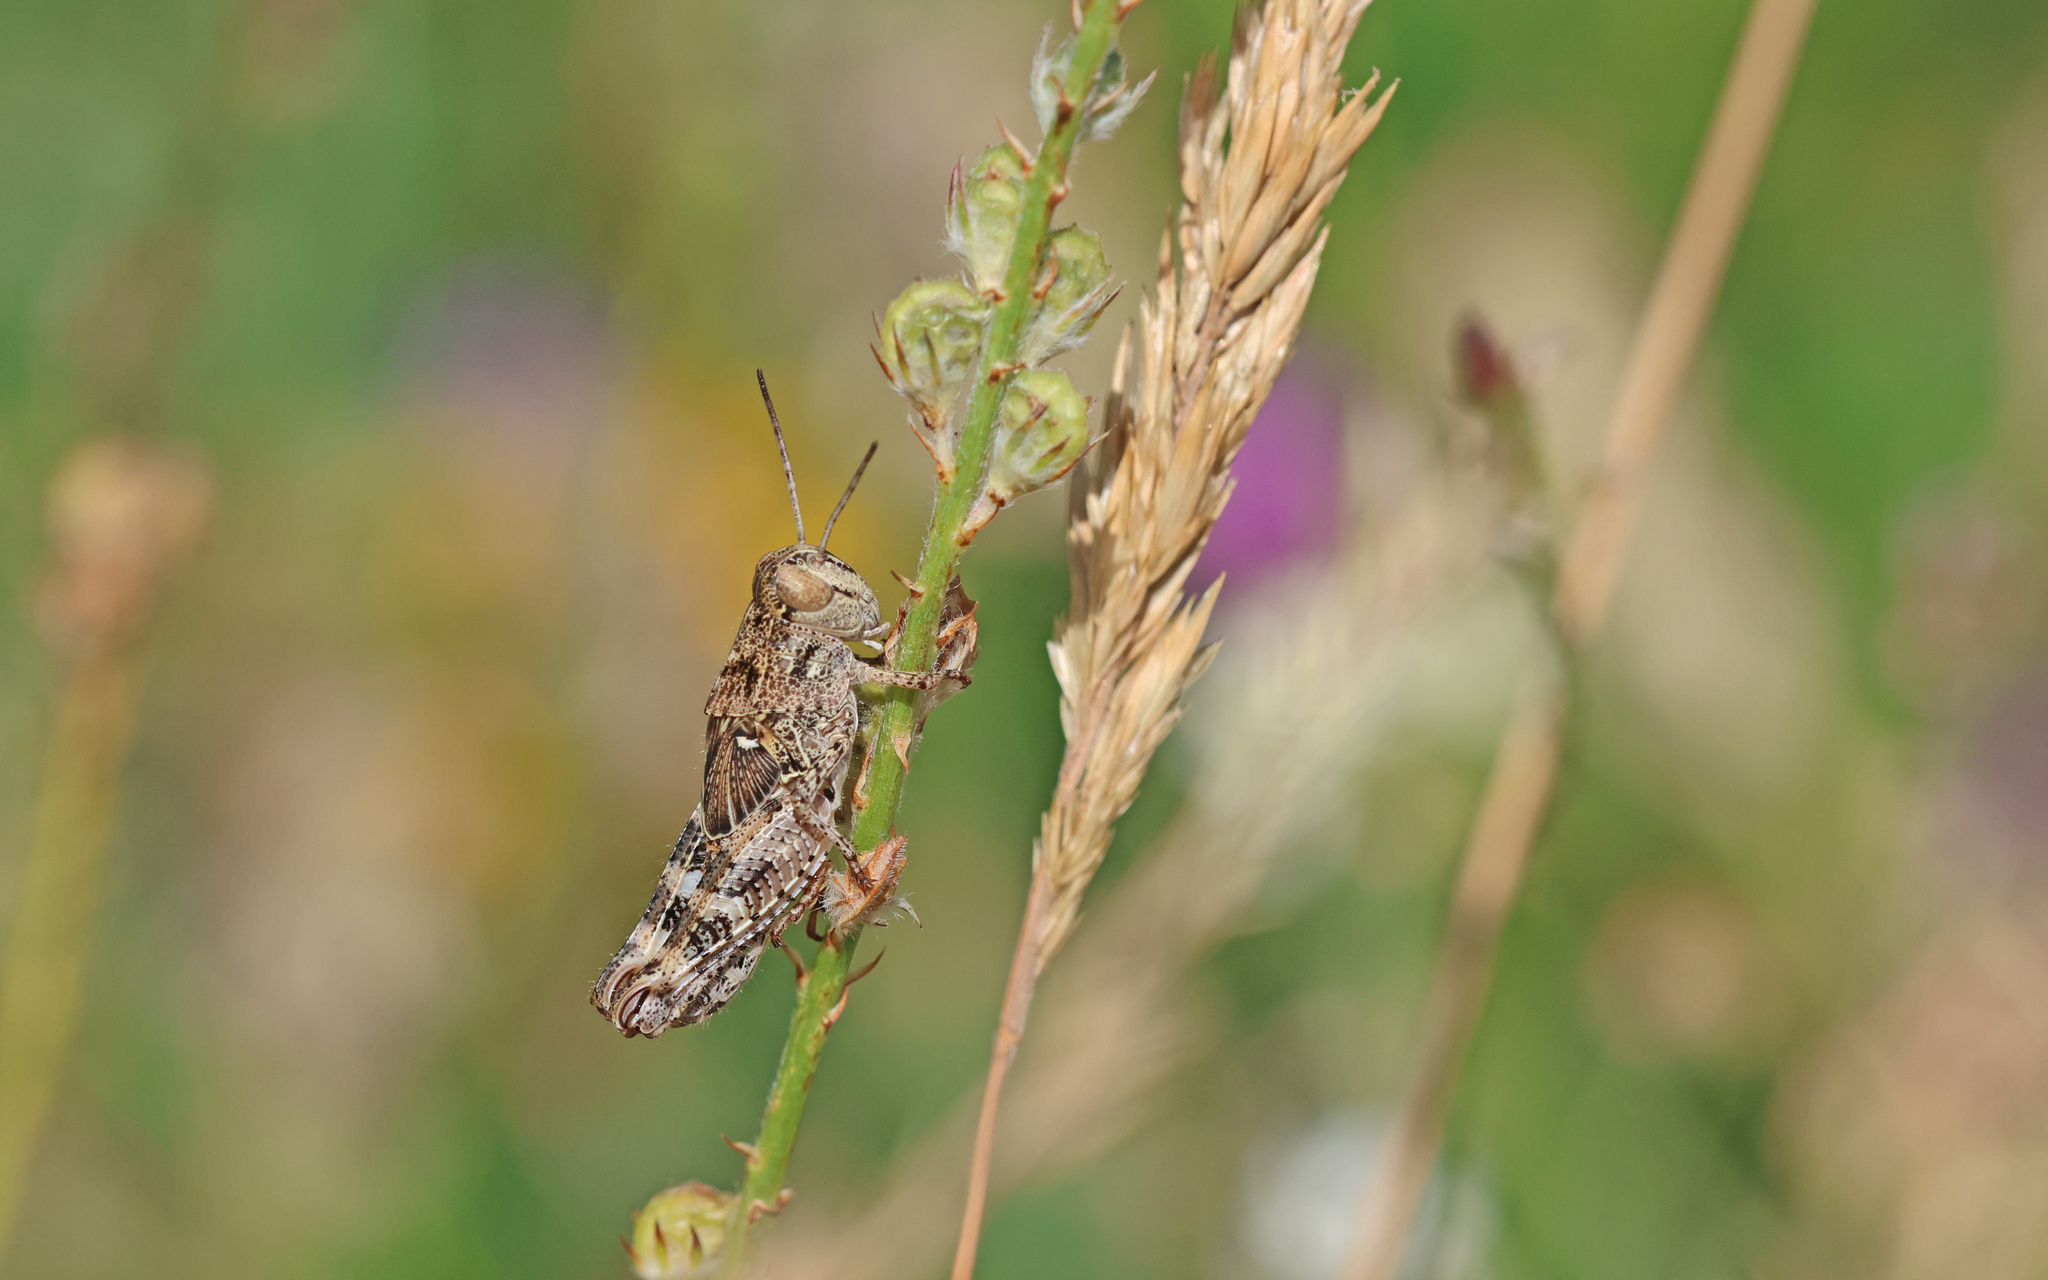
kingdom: Animalia
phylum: Arthropoda
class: Insecta
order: Orthoptera
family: Acrididae
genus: Calliptamus
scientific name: Calliptamus italicus
